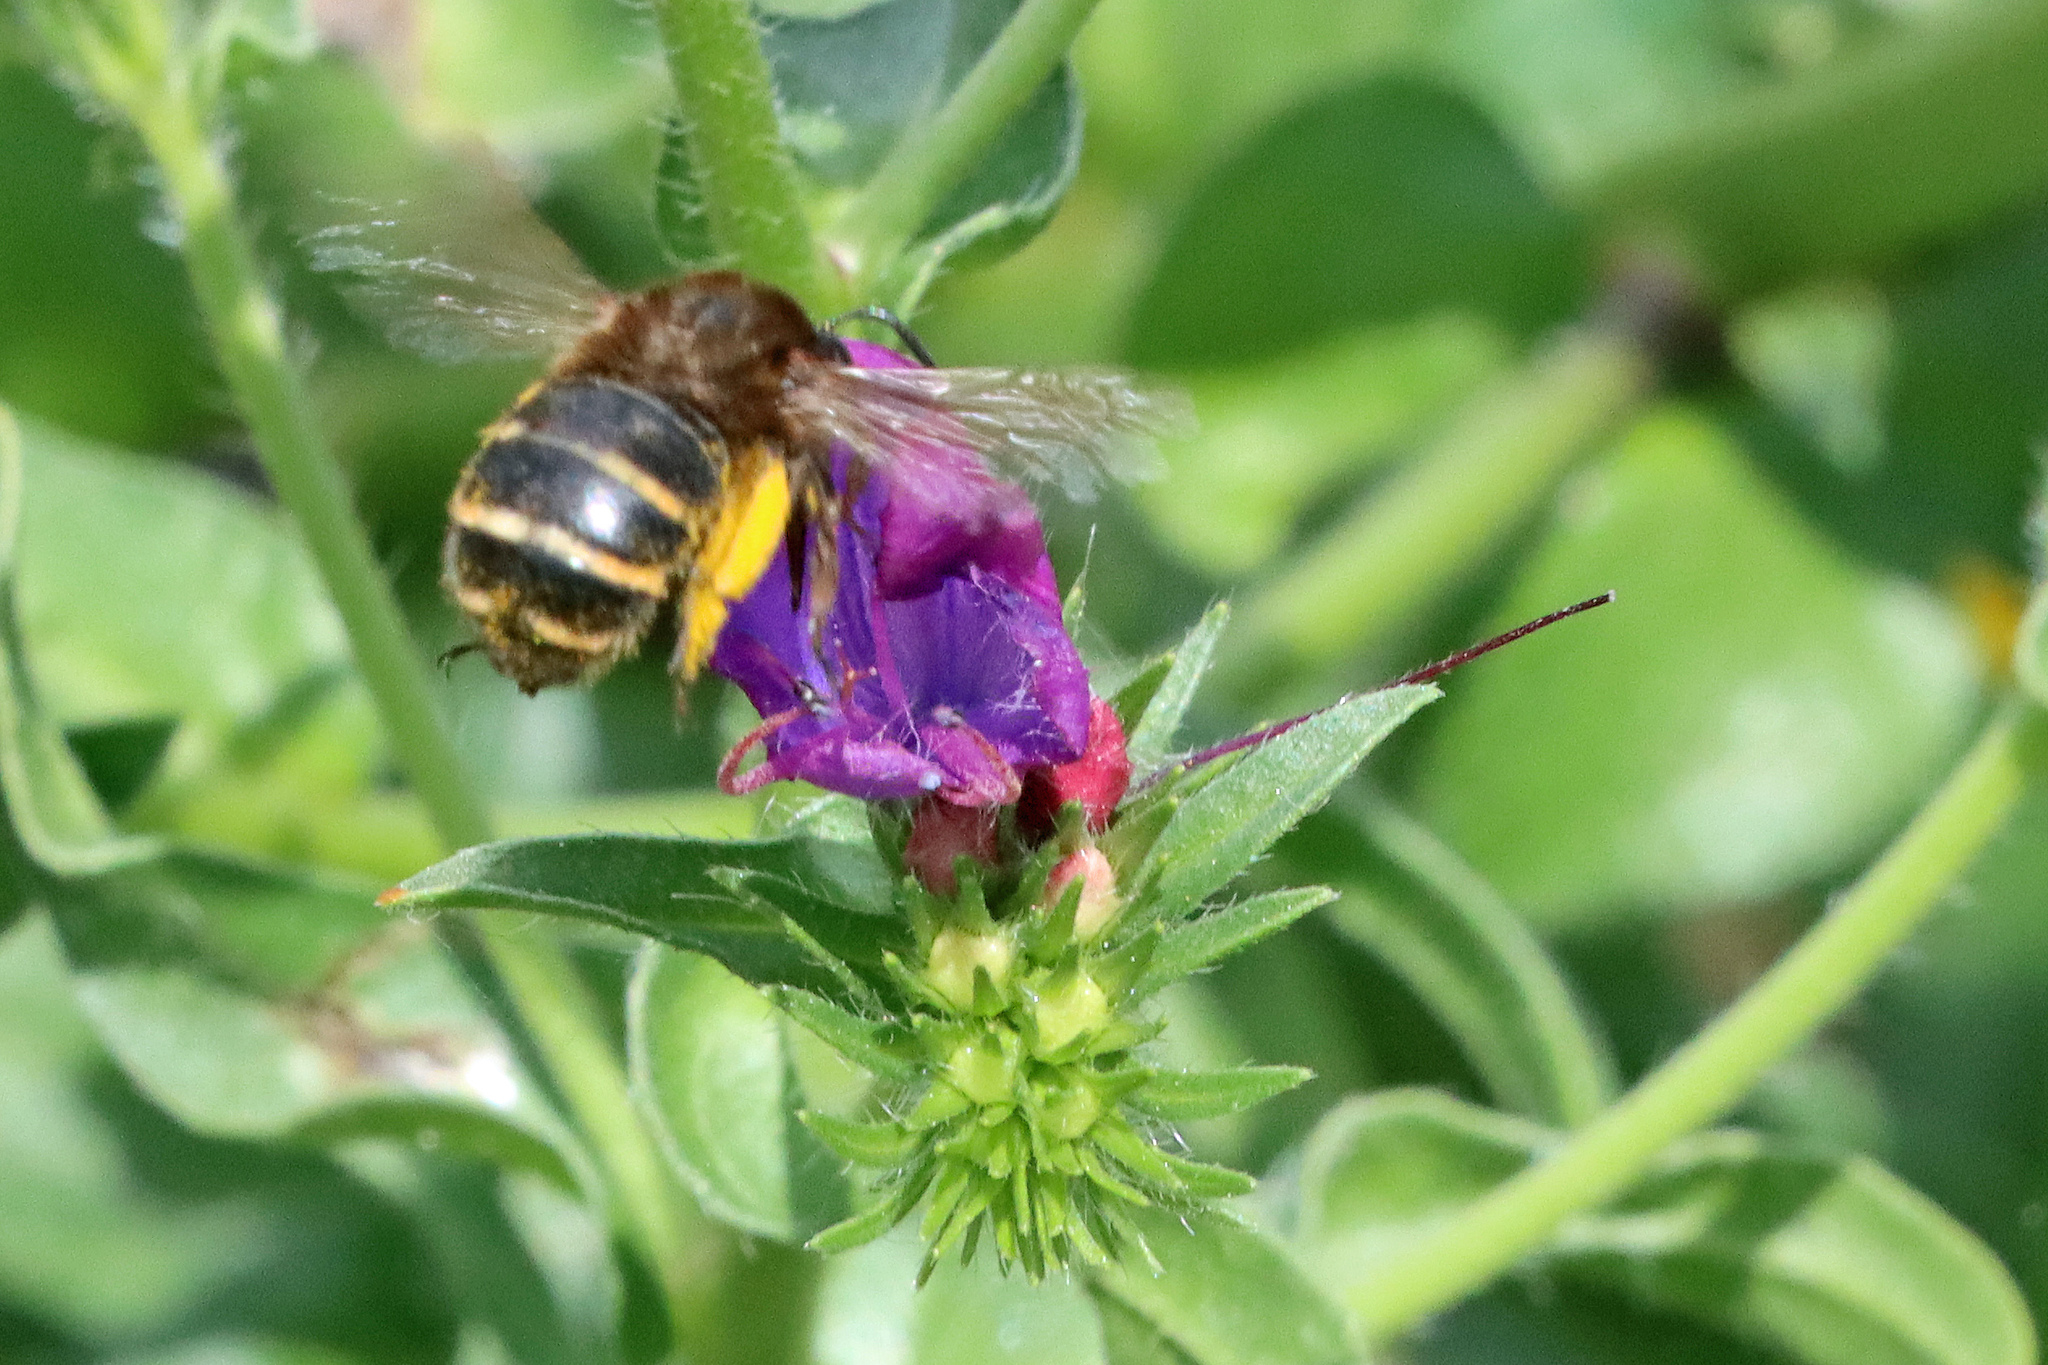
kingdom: Animalia
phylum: Arthropoda
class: Insecta
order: Hymenoptera
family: Apidae
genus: Amegilla
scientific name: Amegilla quadrifasciata
